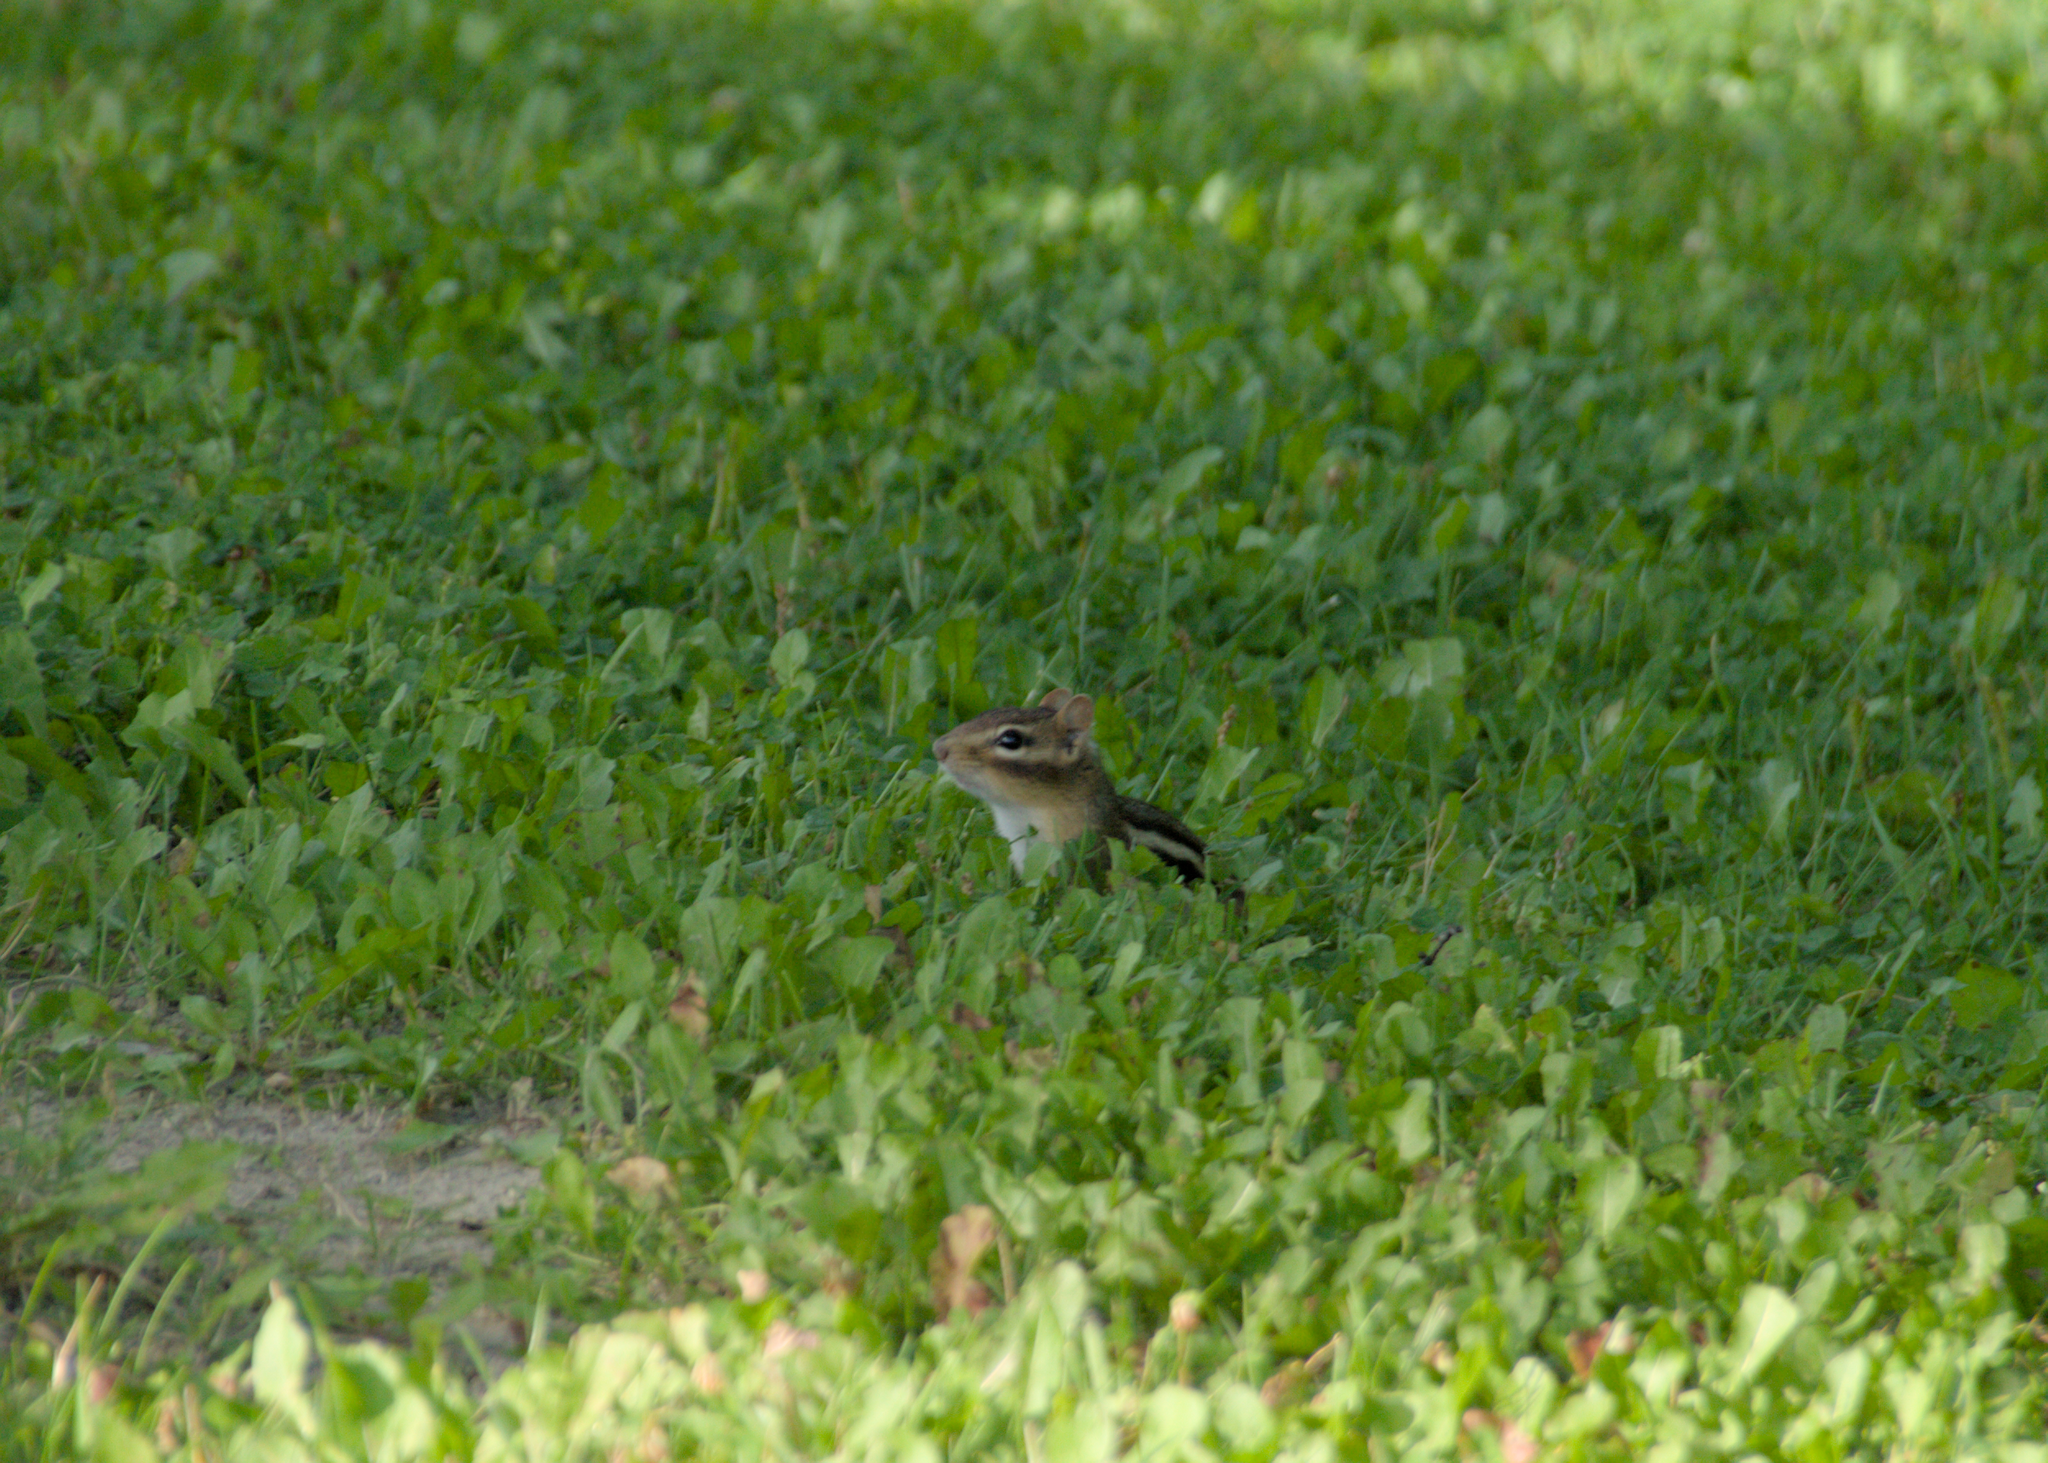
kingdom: Animalia
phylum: Chordata
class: Mammalia
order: Rodentia
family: Sciuridae
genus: Tamias
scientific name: Tamias striatus
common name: Eastern chipmunk
